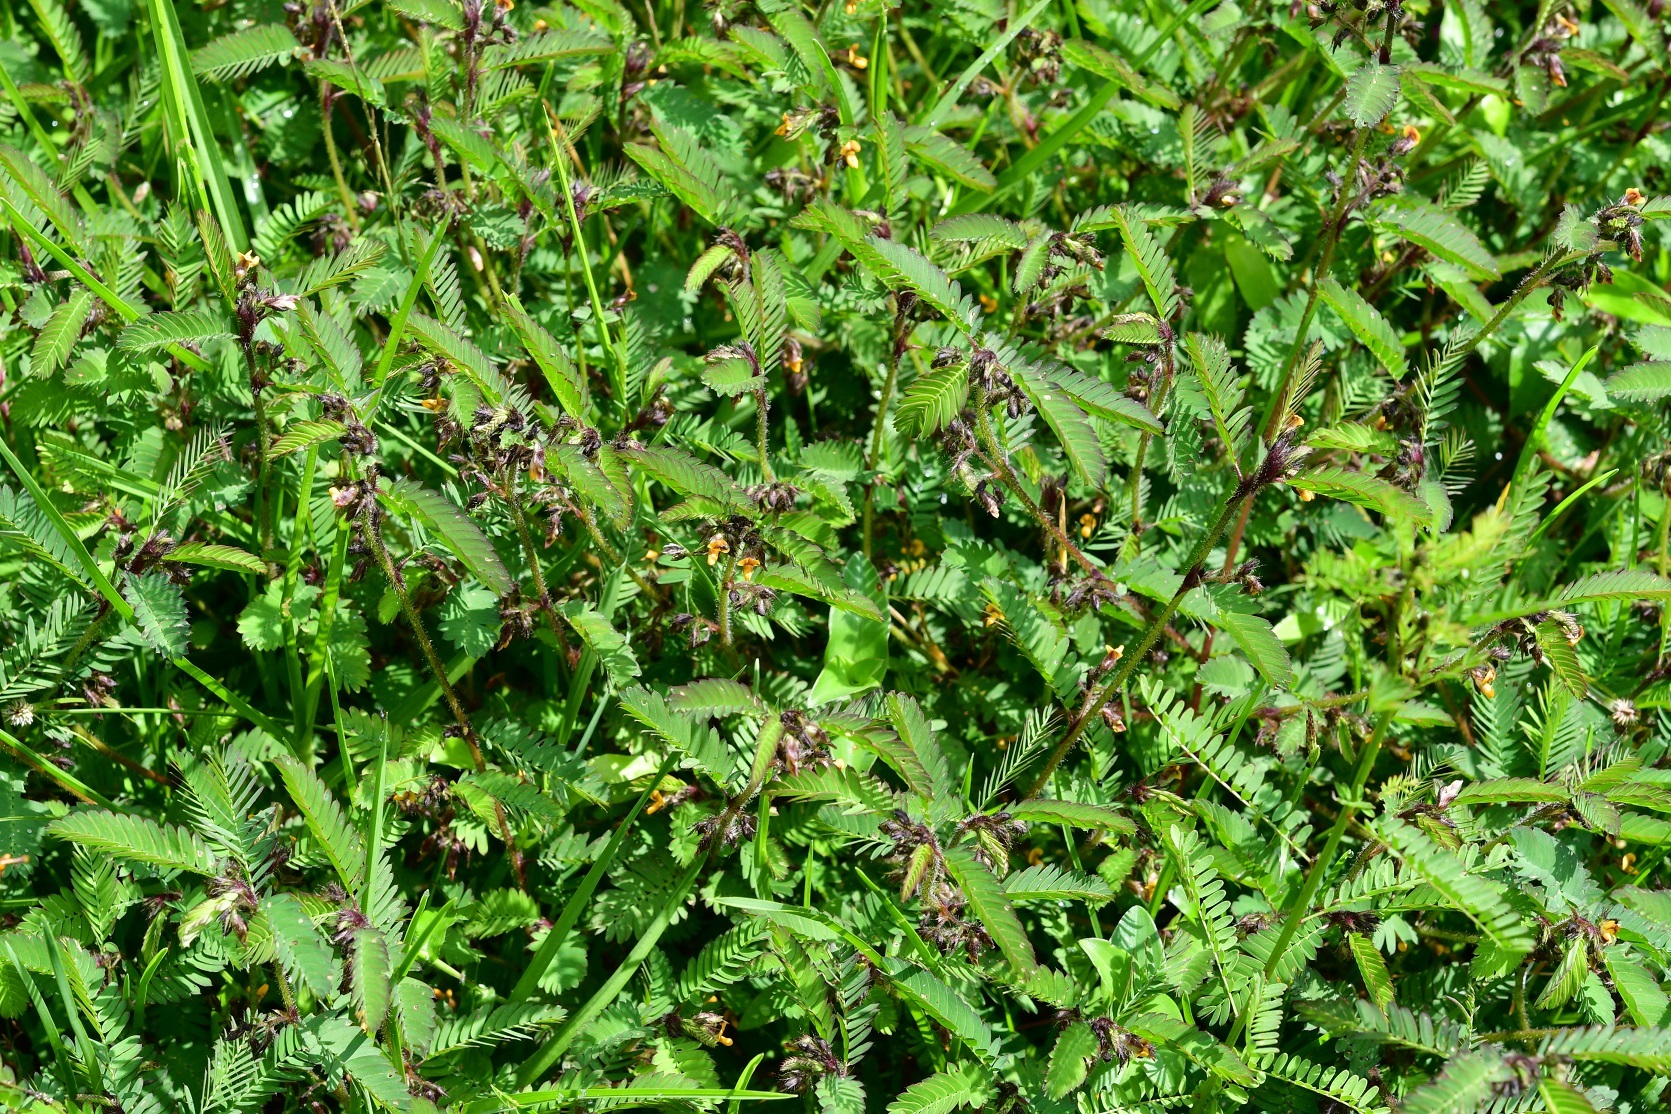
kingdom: Plantae
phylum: Tracheophyta
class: Magnoliopsida
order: Fabales
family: Fabaceae
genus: Aeschynomene
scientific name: Aeschynomene villosa
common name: Hairy-jointvetch
